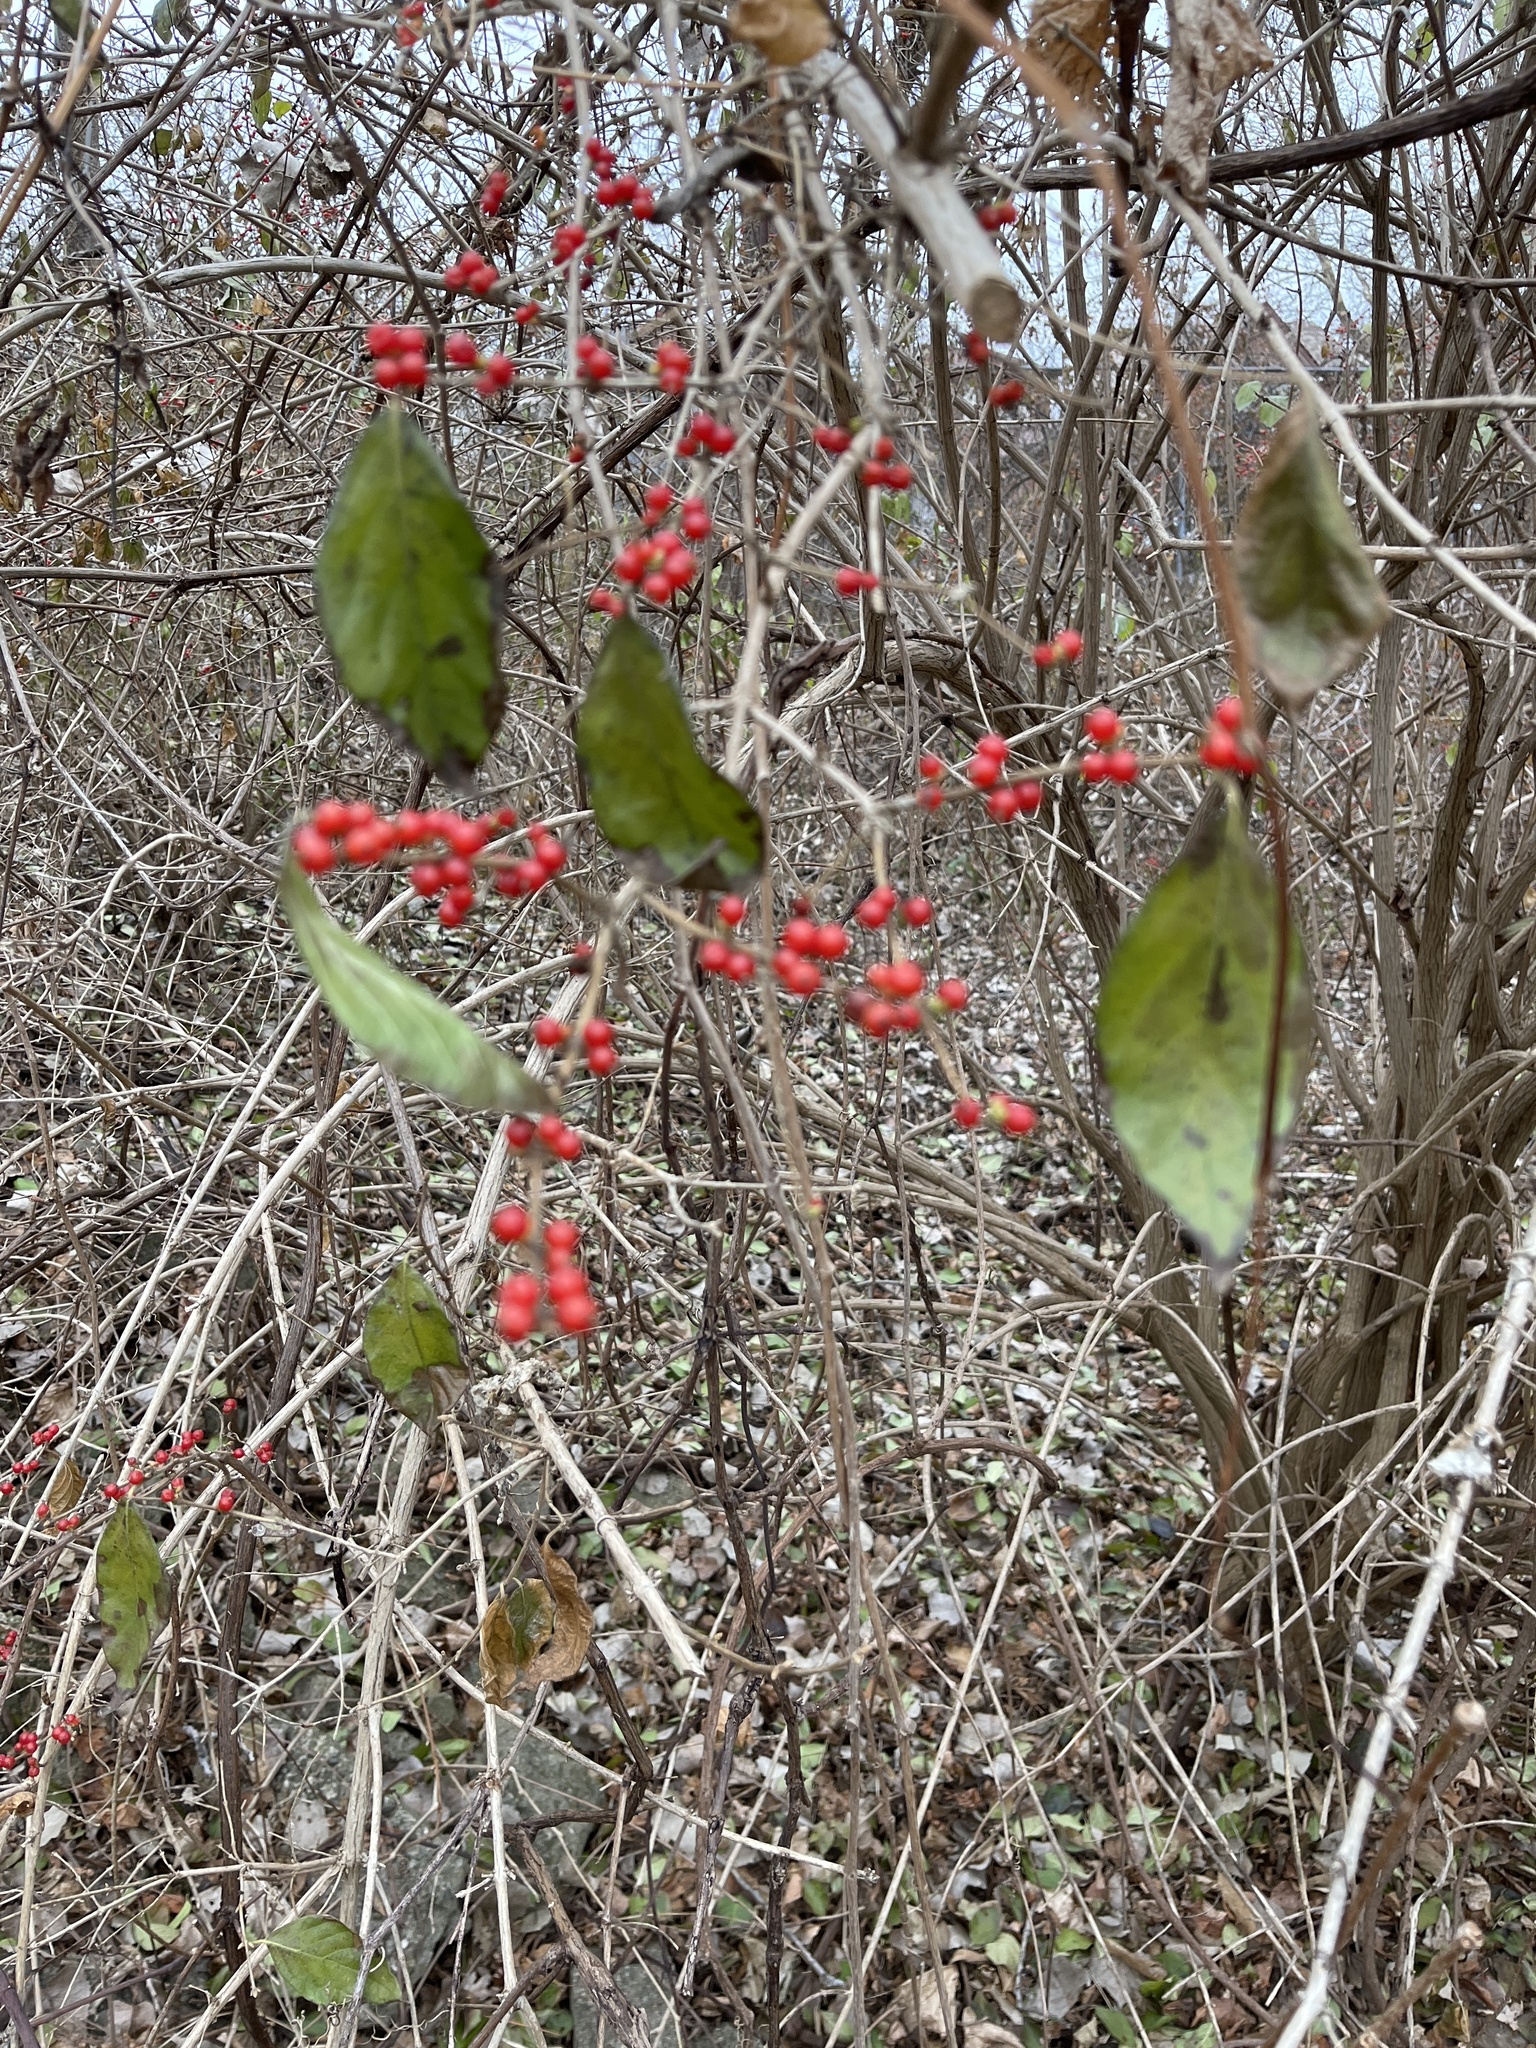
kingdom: Plantae
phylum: Tracheophyta
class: Magnoliopsida
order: Dipsacales
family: Caprifoliaceae
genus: Lonicera
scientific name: Lonicera maackii
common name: Amur honeysuckle
